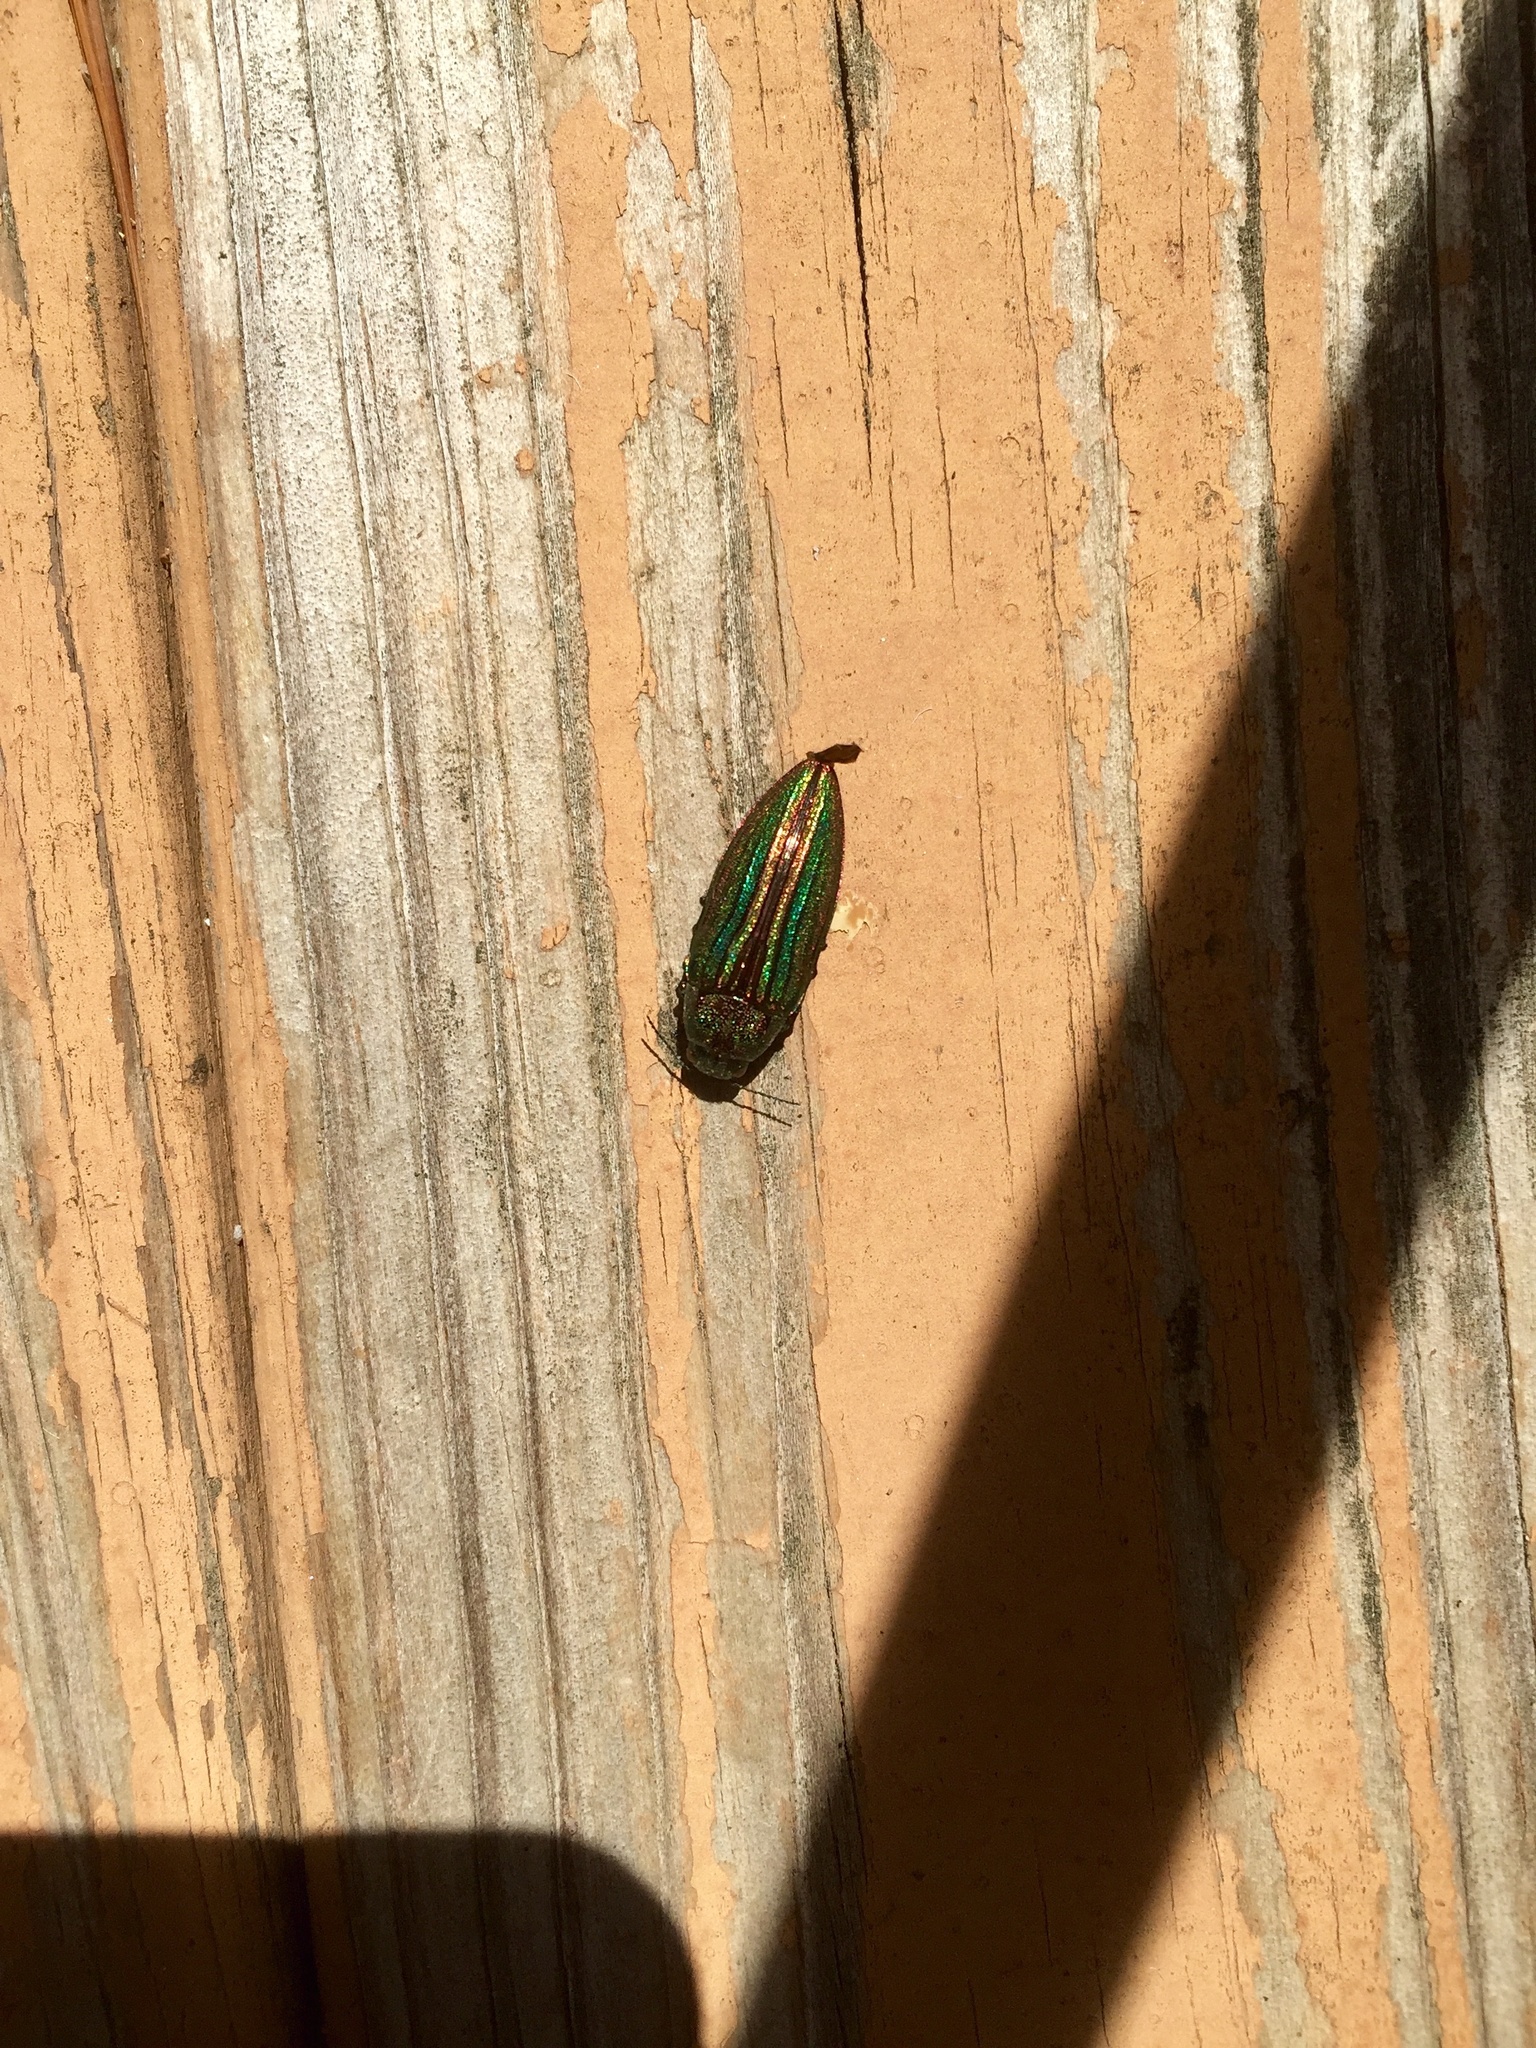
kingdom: Animalia
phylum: Arthropoda
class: Insecta
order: Coleoptera
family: Buprestidae
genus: Buprestis
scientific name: Buprestis striata
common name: Striated jewel beetle
